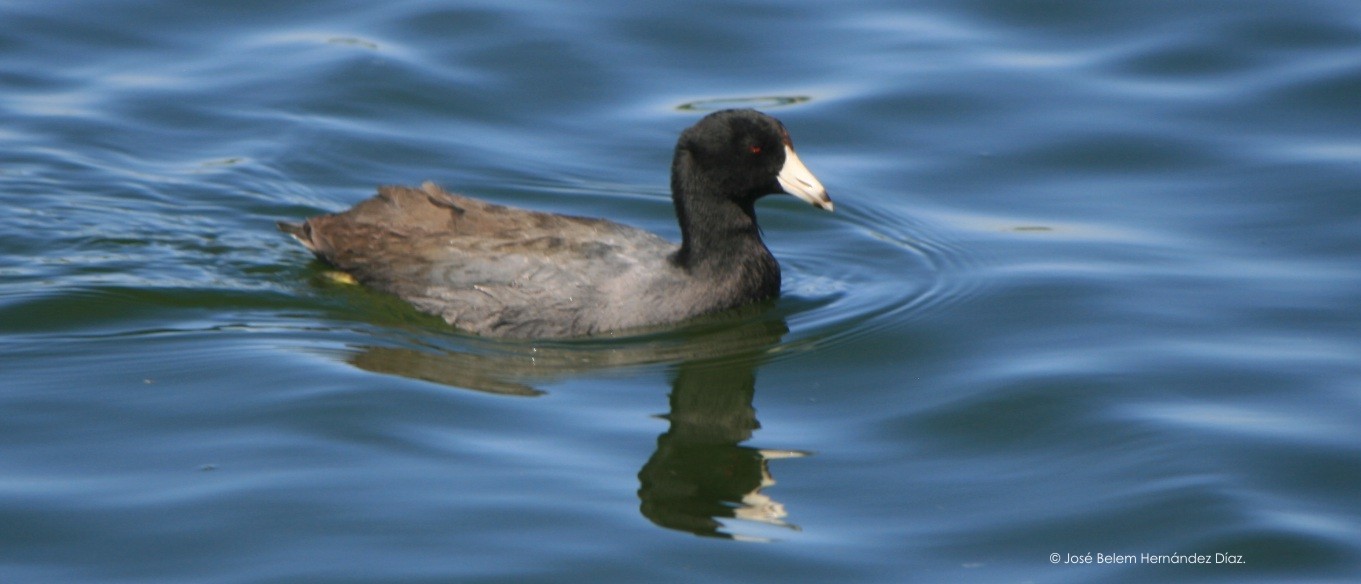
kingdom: Animalia
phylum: Chordata
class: Aves
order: Gruiformes
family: Rallidae
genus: Fulica
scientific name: Fulica americana
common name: American coot
